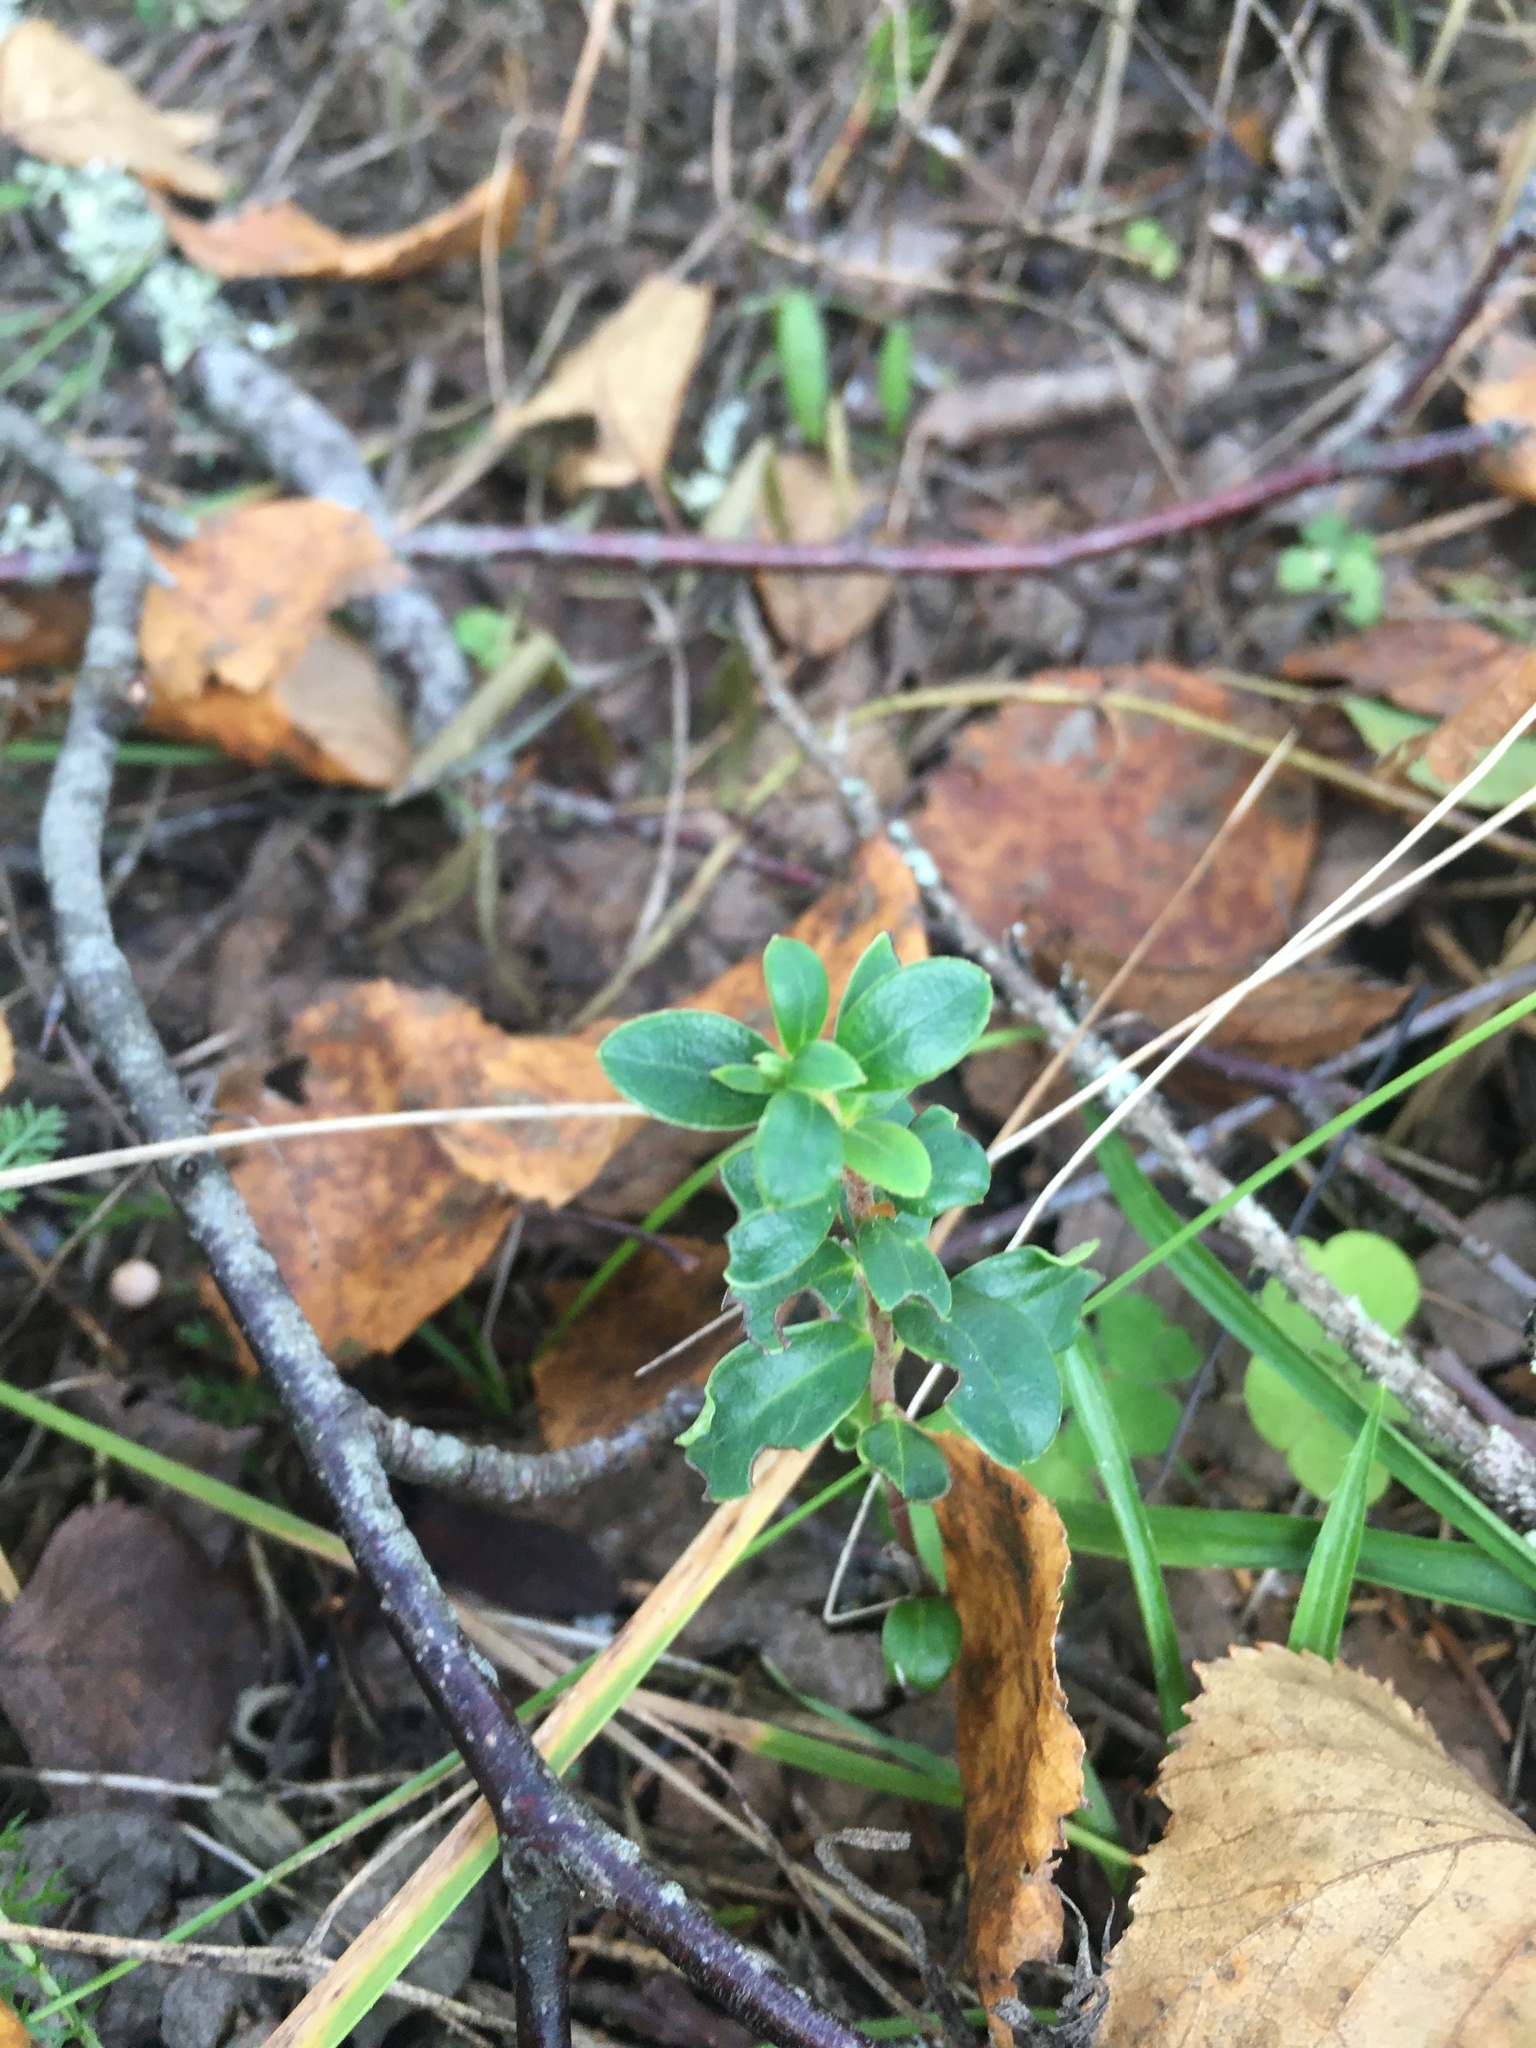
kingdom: Plantae
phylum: Tracheophyta
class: Magnoliopsida
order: Ericales
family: Ericaceae
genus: Vaccinium
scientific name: Vaccinium vitis-idaea
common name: Cowberry
